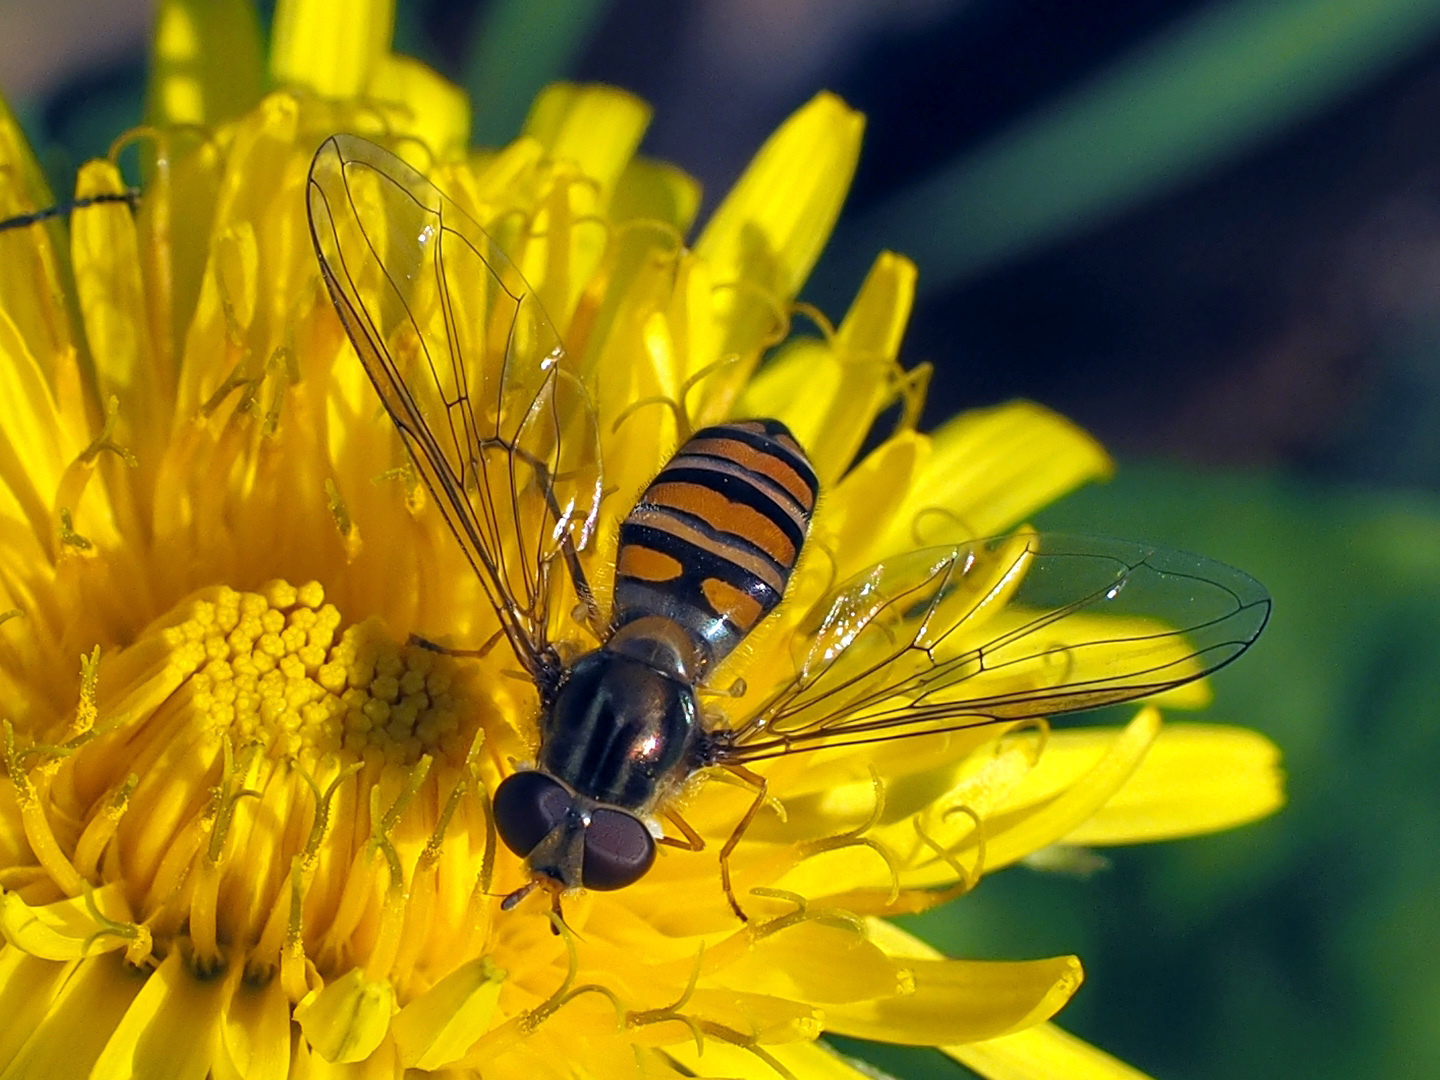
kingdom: Animalia
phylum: Arthropoda
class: Insecta
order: Diptera
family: Syrphidae
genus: Episyrphus
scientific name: Episyrphus balteatus
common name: Marmalade hoverfly
